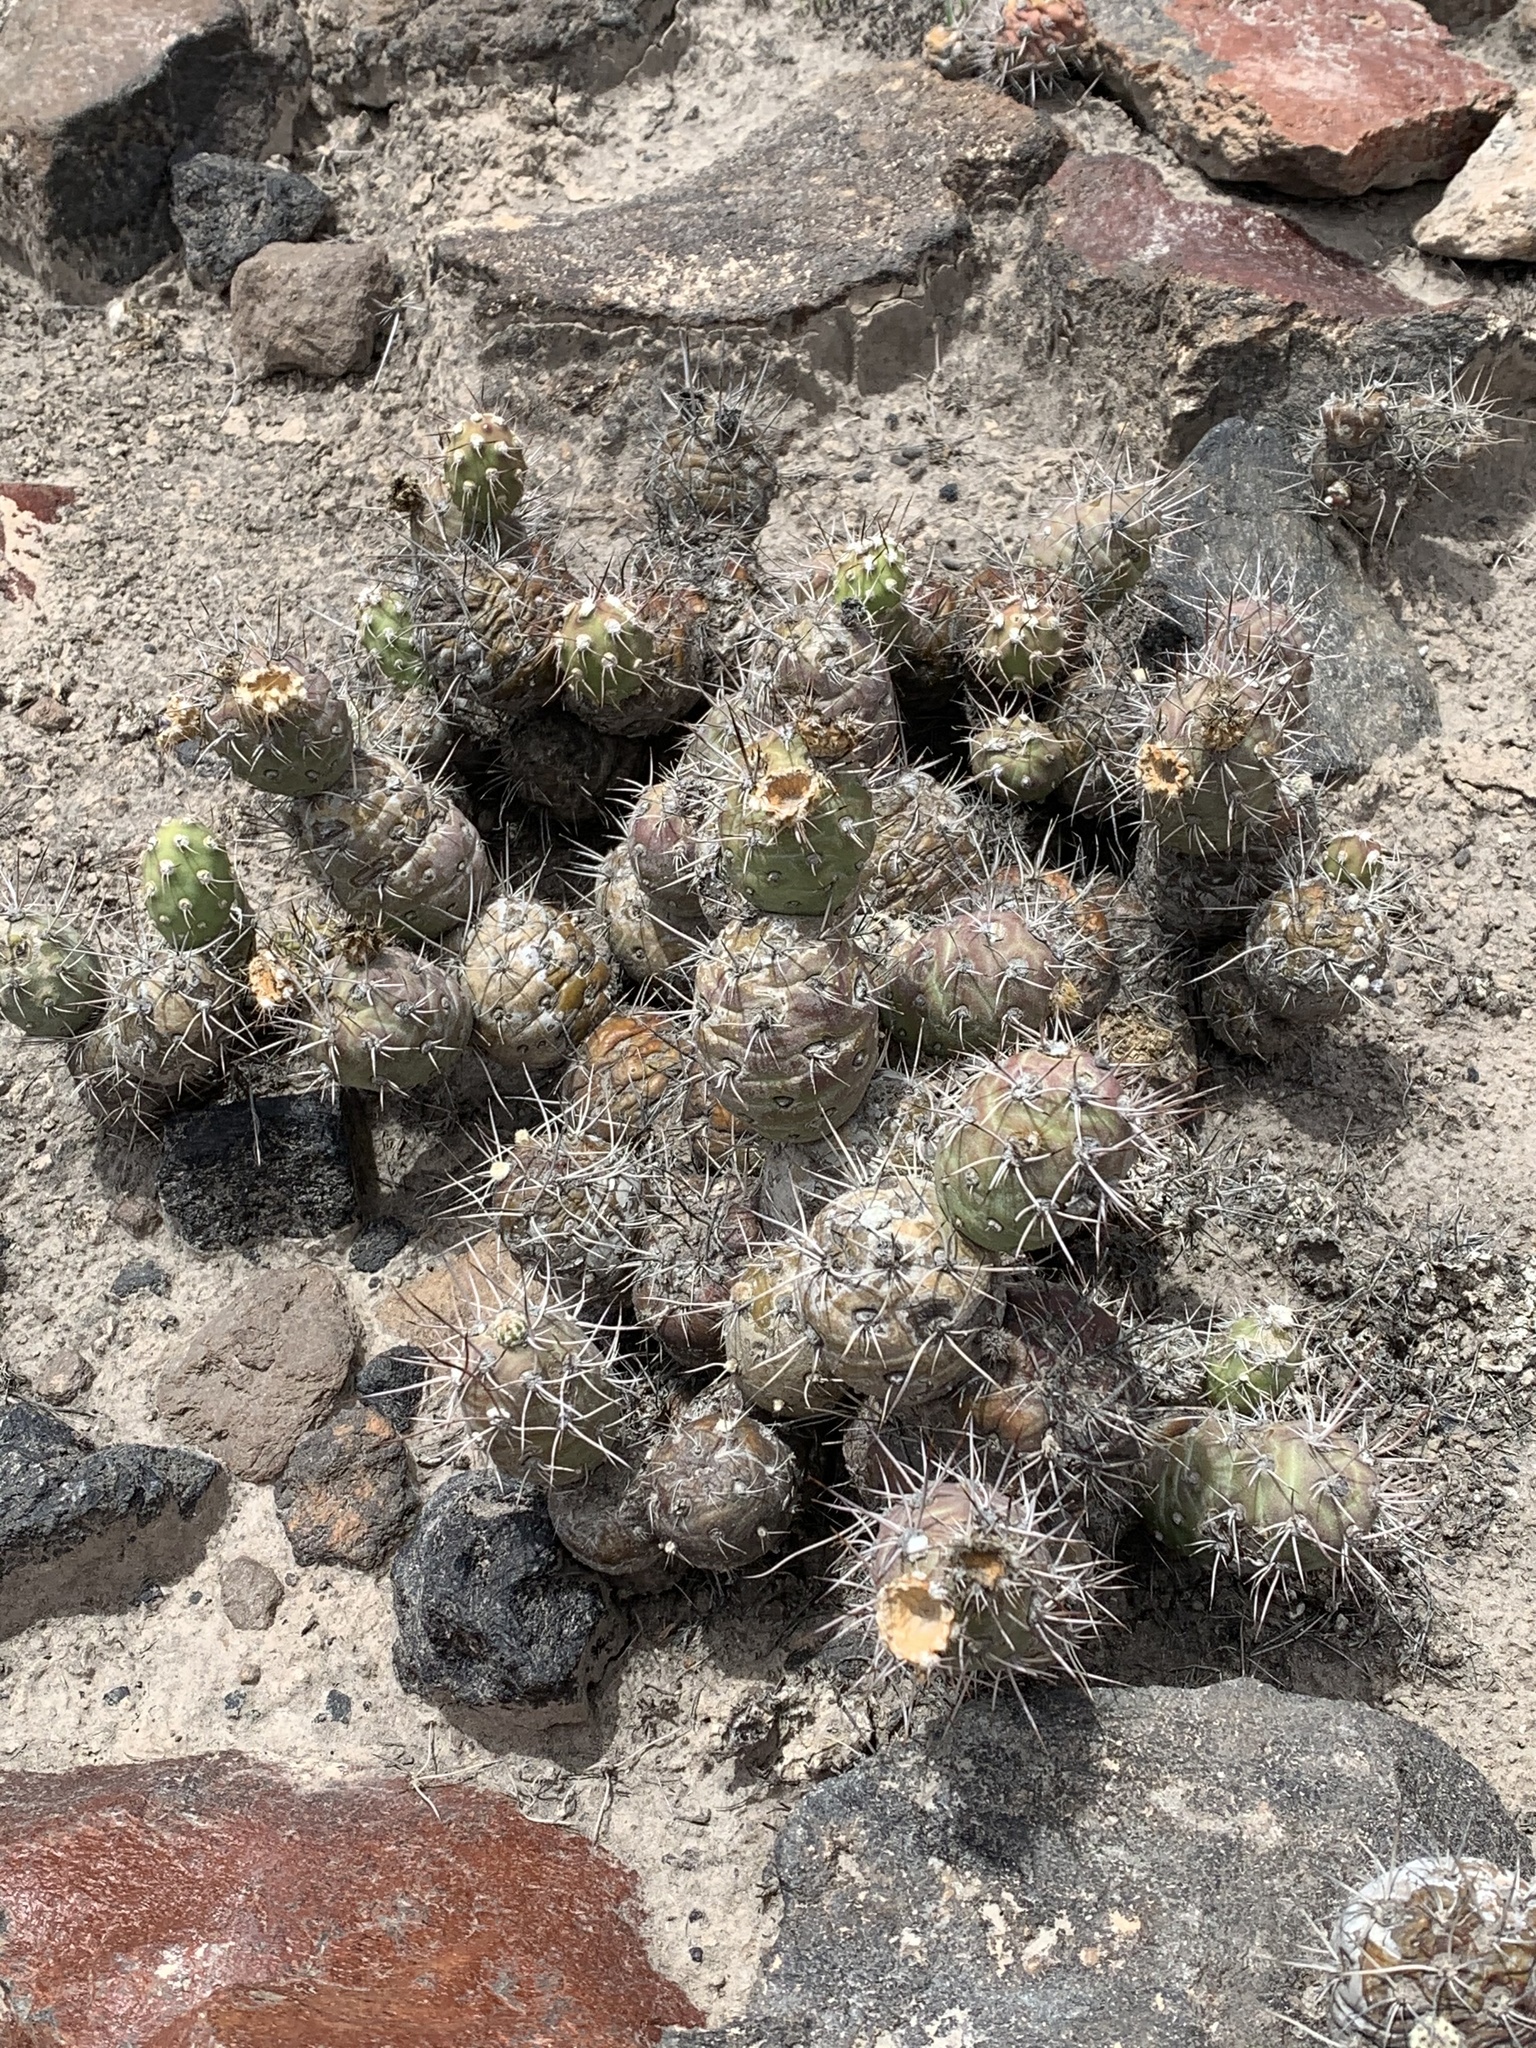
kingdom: Plantae
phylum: Tracheophyta
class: Magnoliopsida
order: Caryophyllales
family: Cactaceae
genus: Cumulopuntia
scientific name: Cumulopuntia sphaerica
